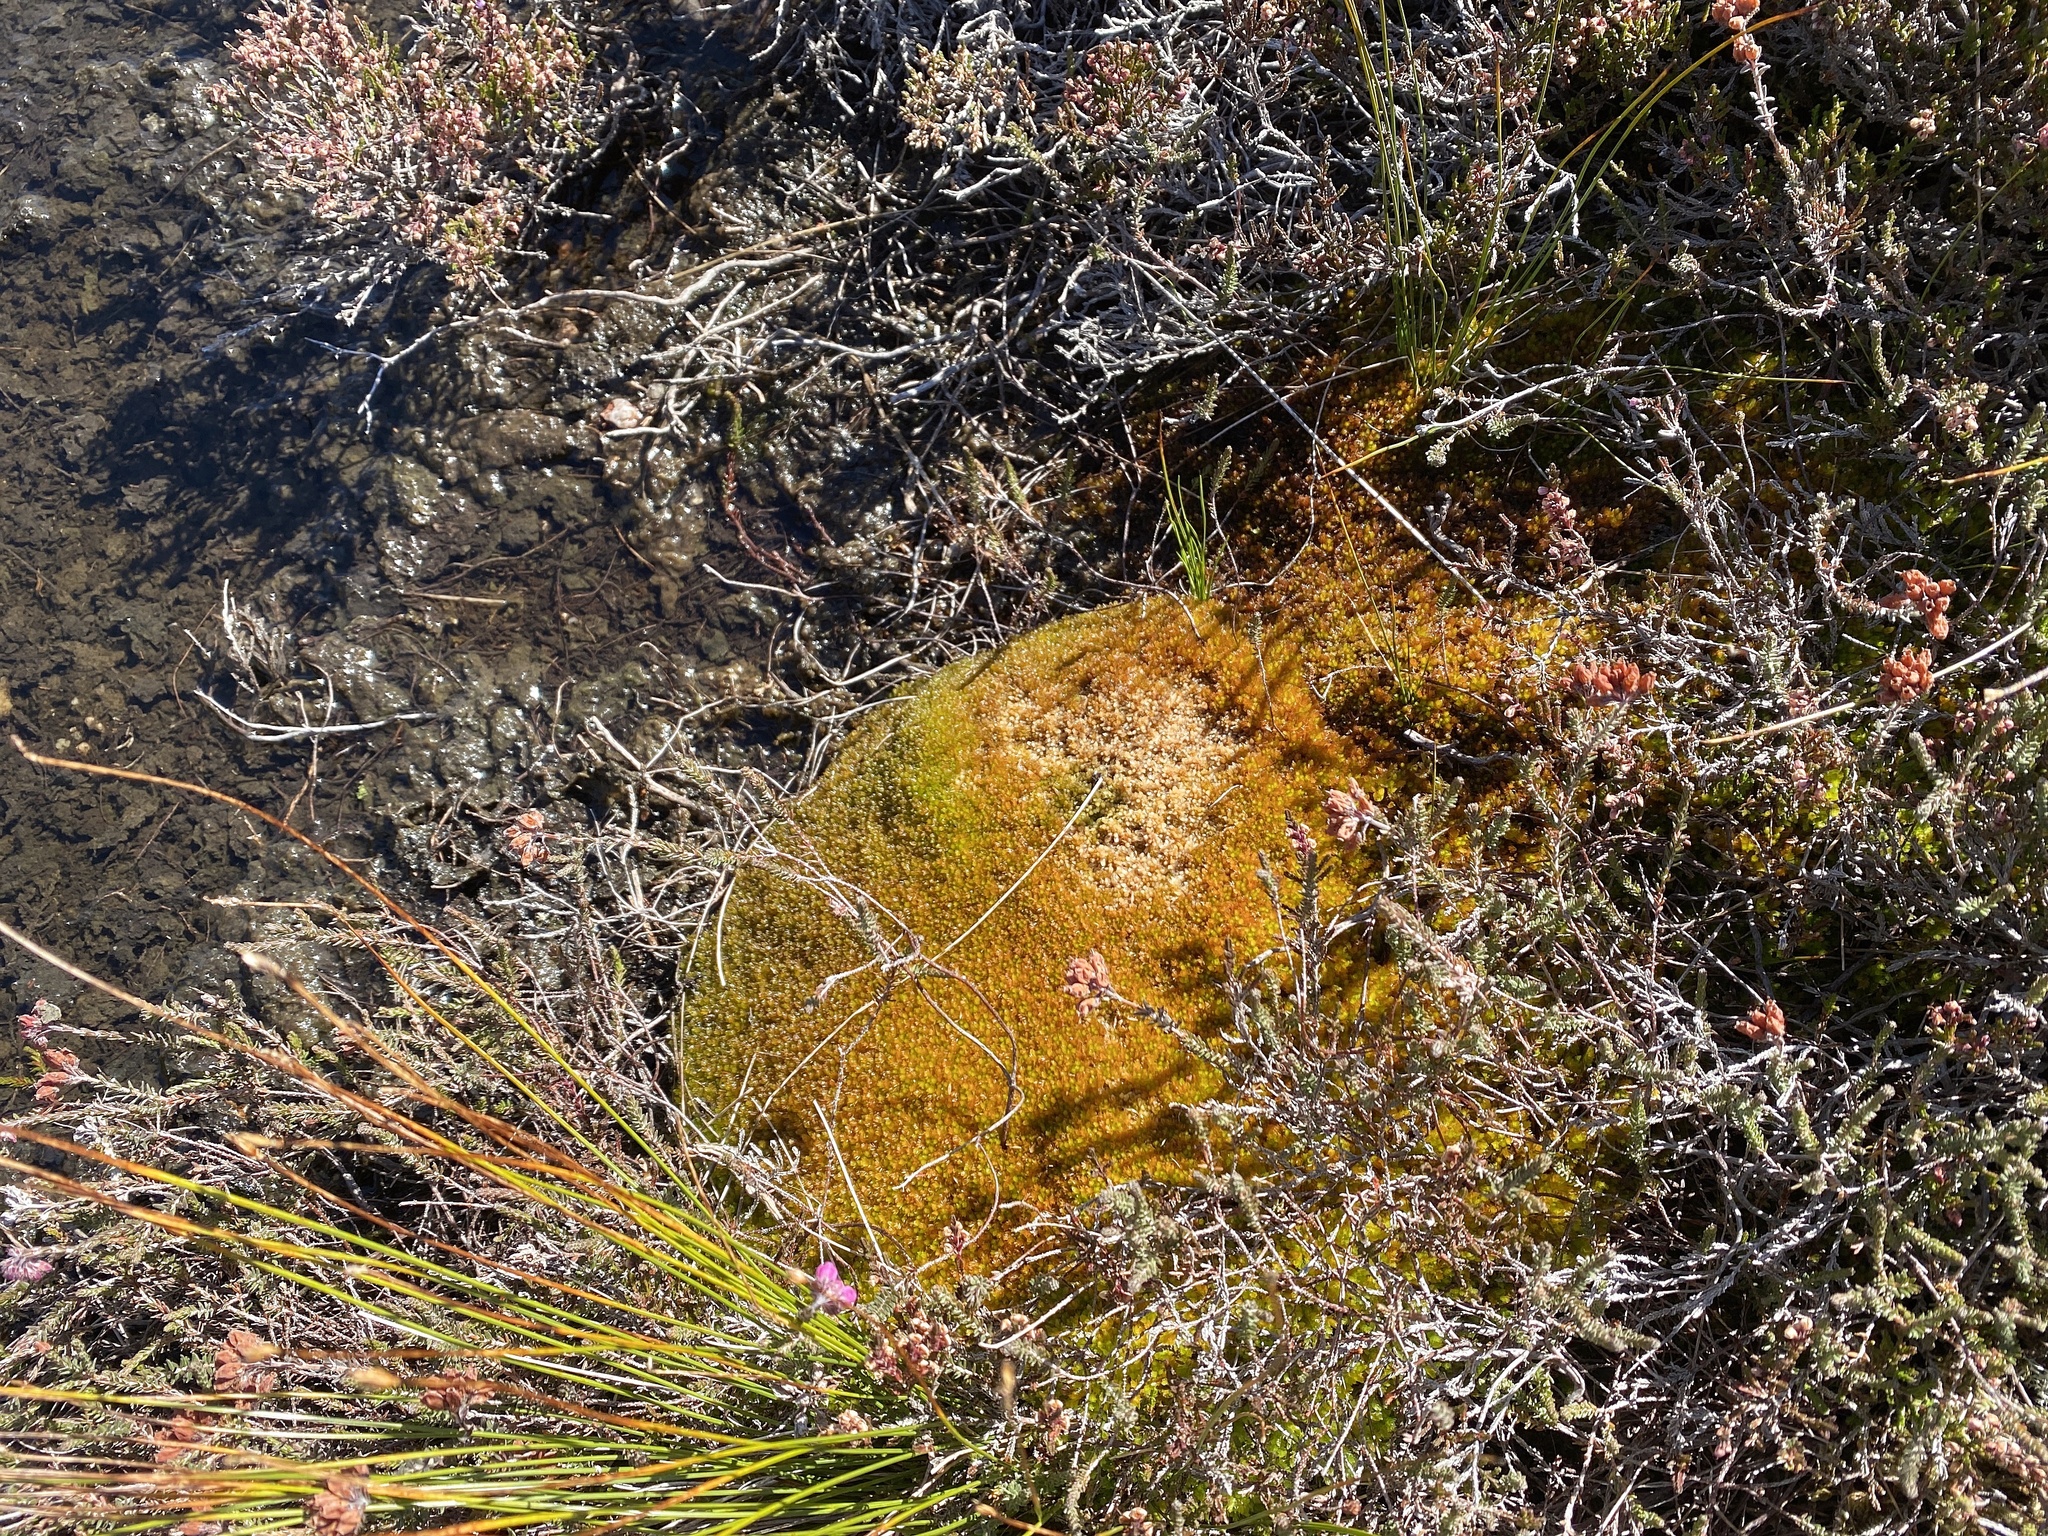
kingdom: Plantae
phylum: Bryophyta
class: Sphagnopsida
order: Sphagnales
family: Sphagnaceae
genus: Sphagnum
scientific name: Sphagnum compactum
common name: Compact peat moss
